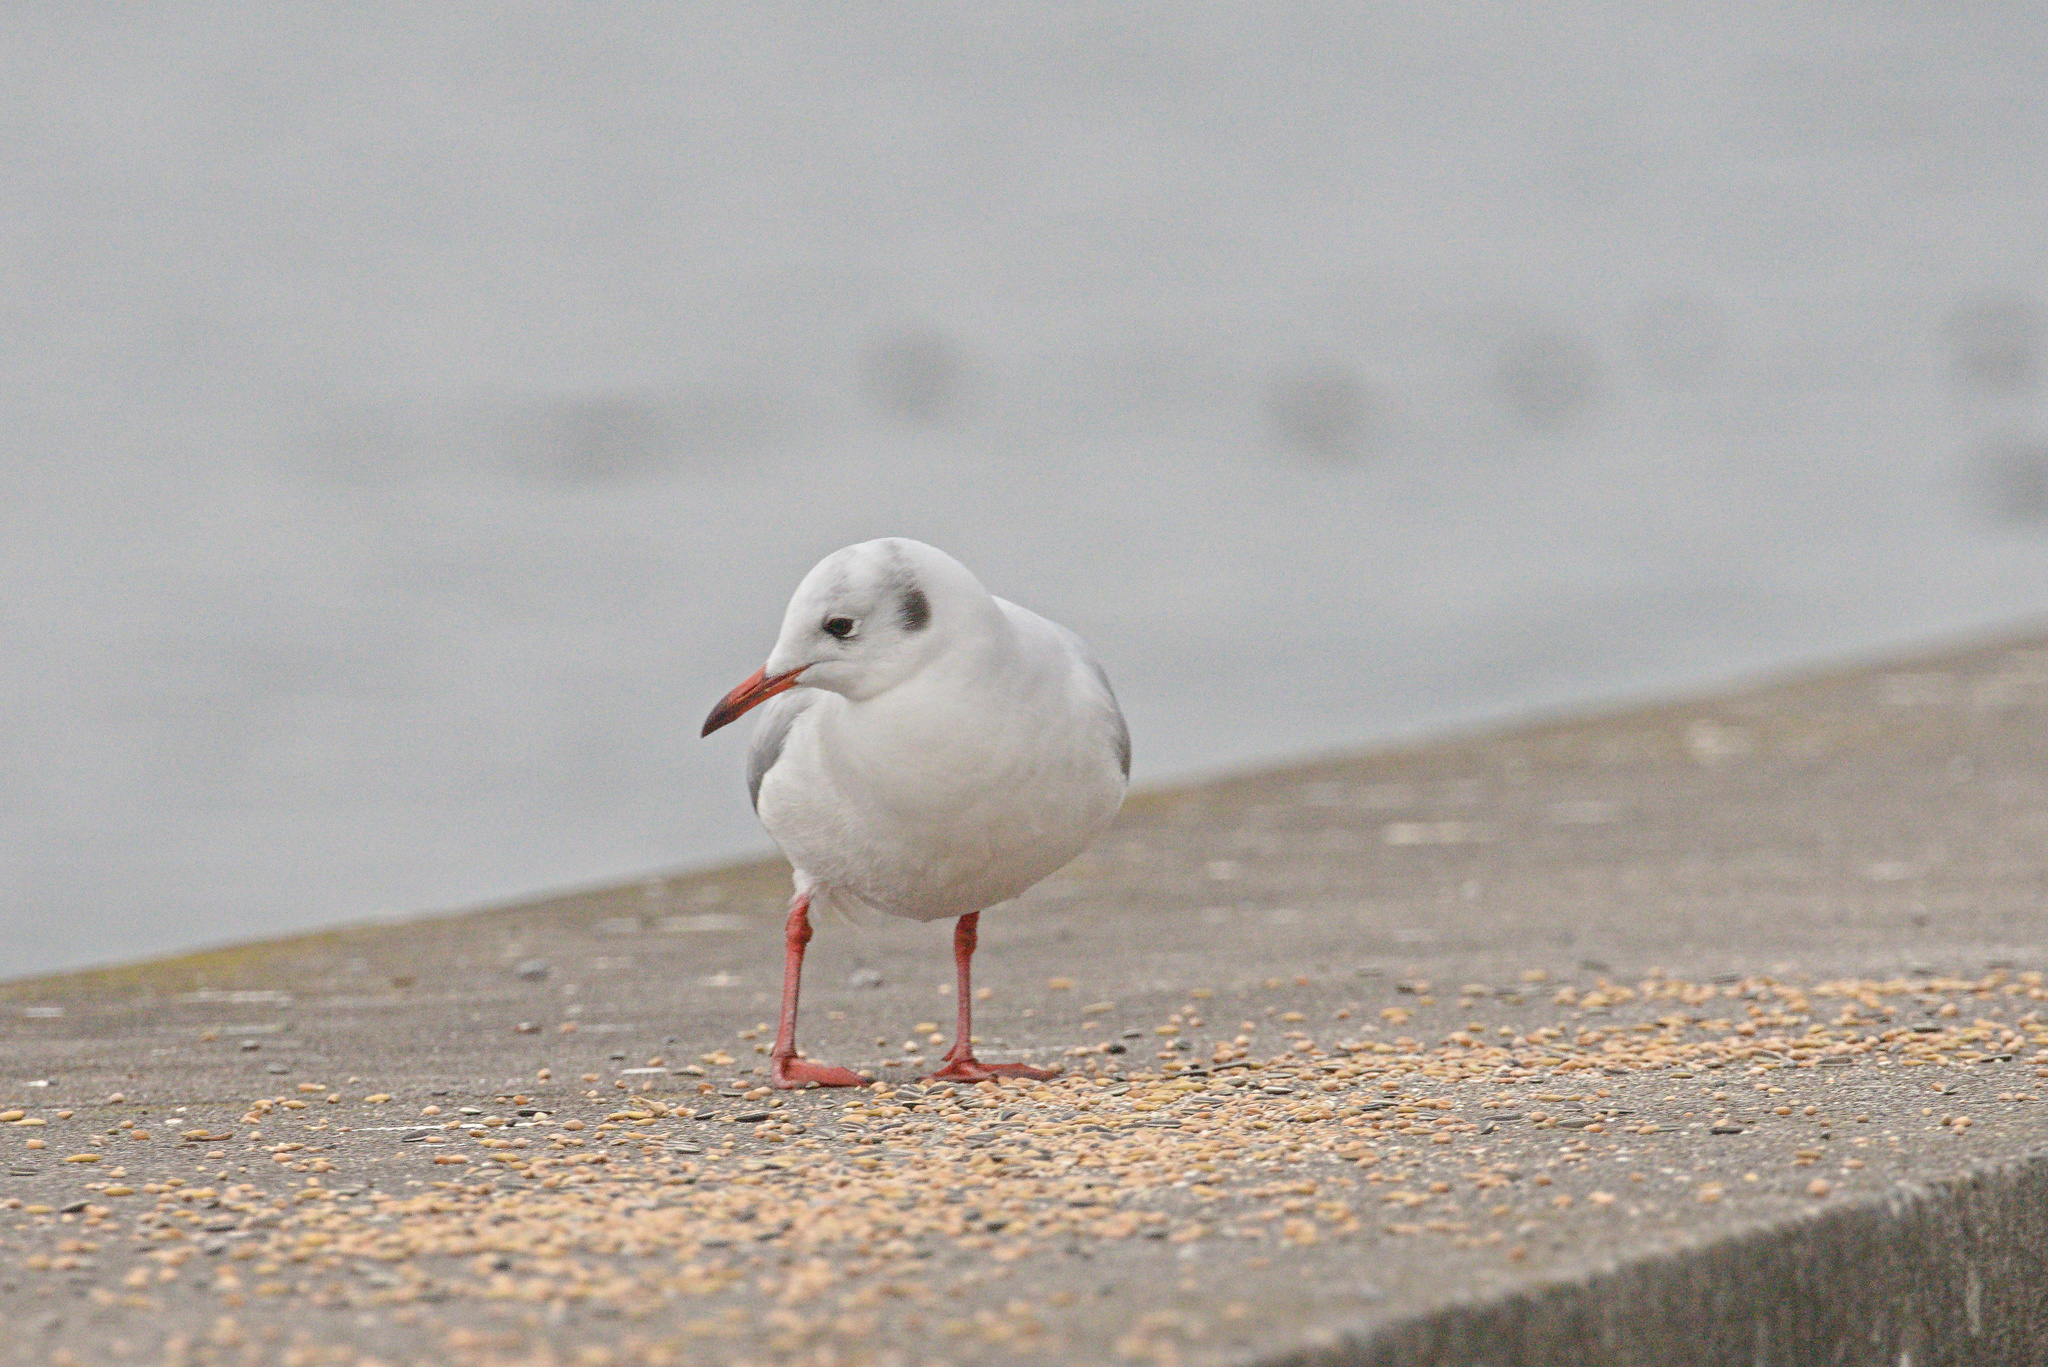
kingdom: Animalia
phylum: Chordata
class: Aves
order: Charadriiformes
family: Laridae
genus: Chroicocephalus
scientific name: Chroicocephalus ridibundus
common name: Black-headed gull
